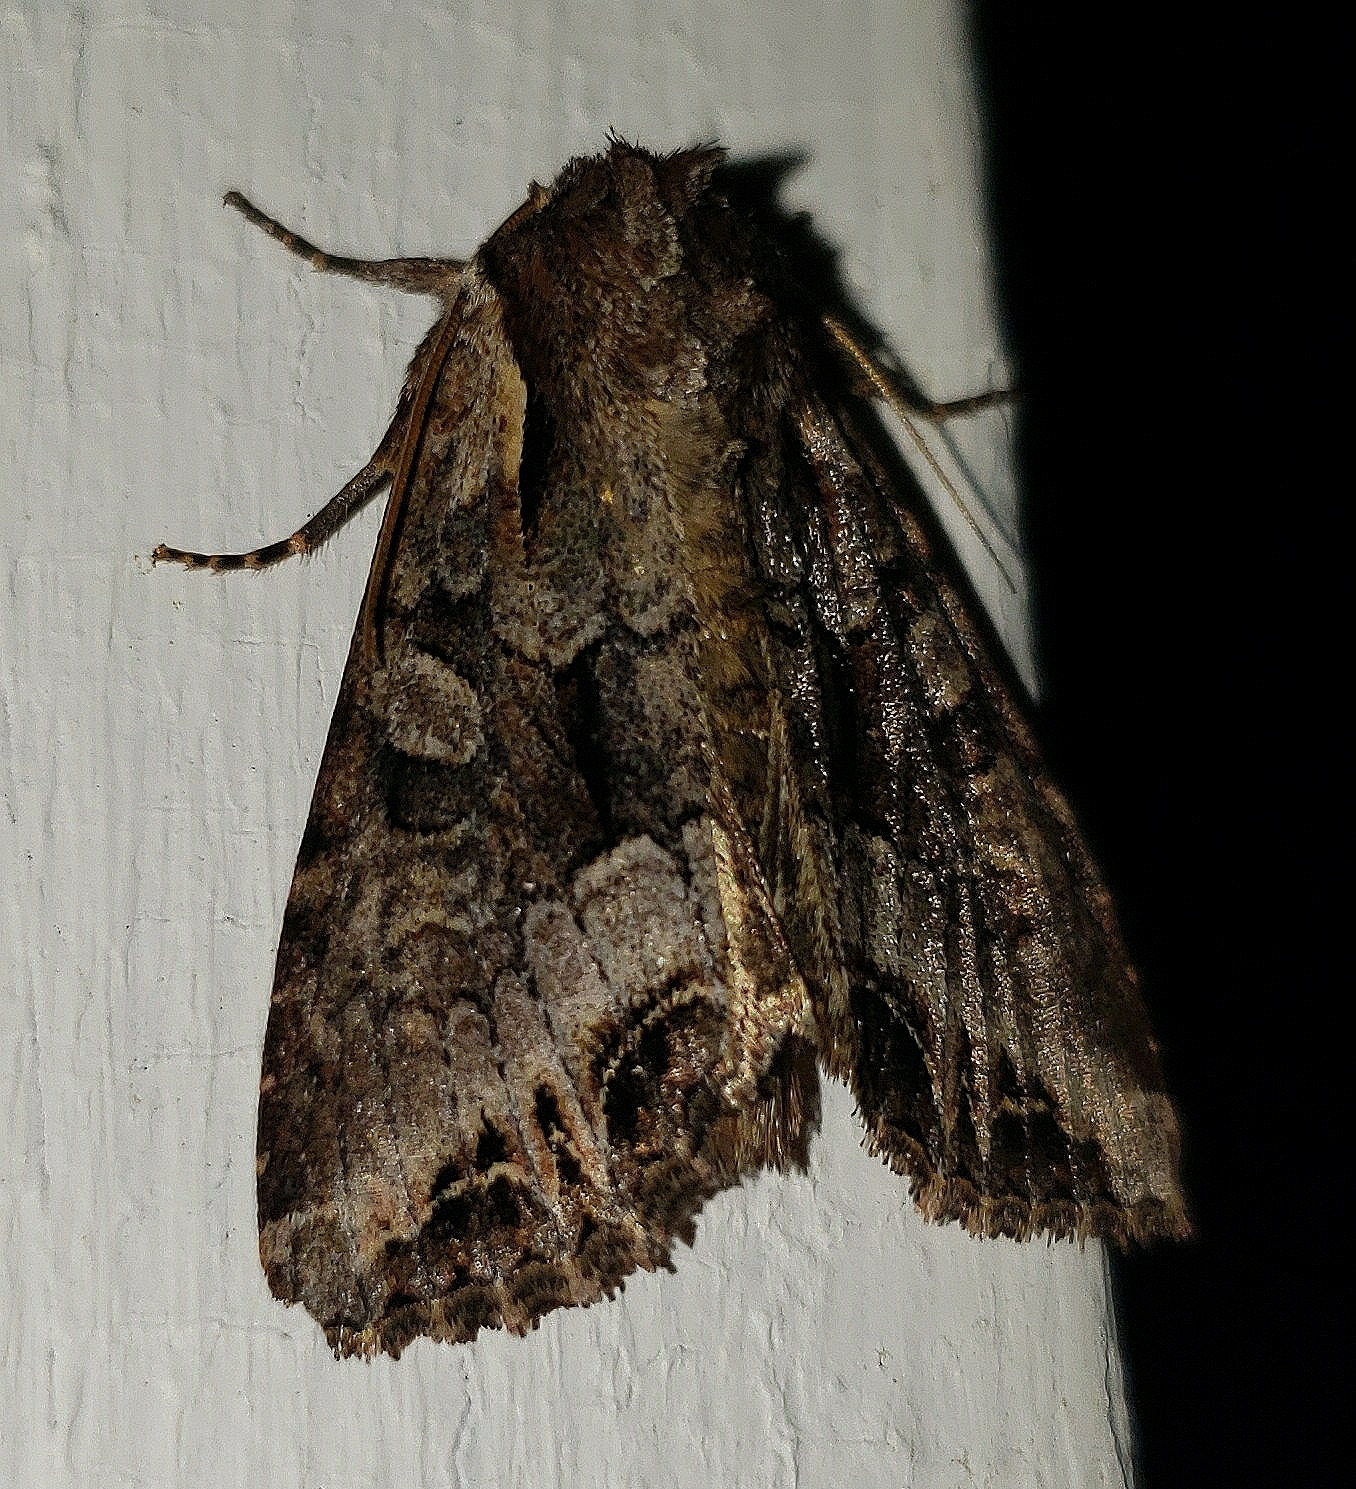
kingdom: Animalia
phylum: Arthropoda
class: Insecta
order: Lepidoptera
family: Noctuidae
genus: Lacanobia
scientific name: Lacanobia grandis
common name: Grand arches moth
